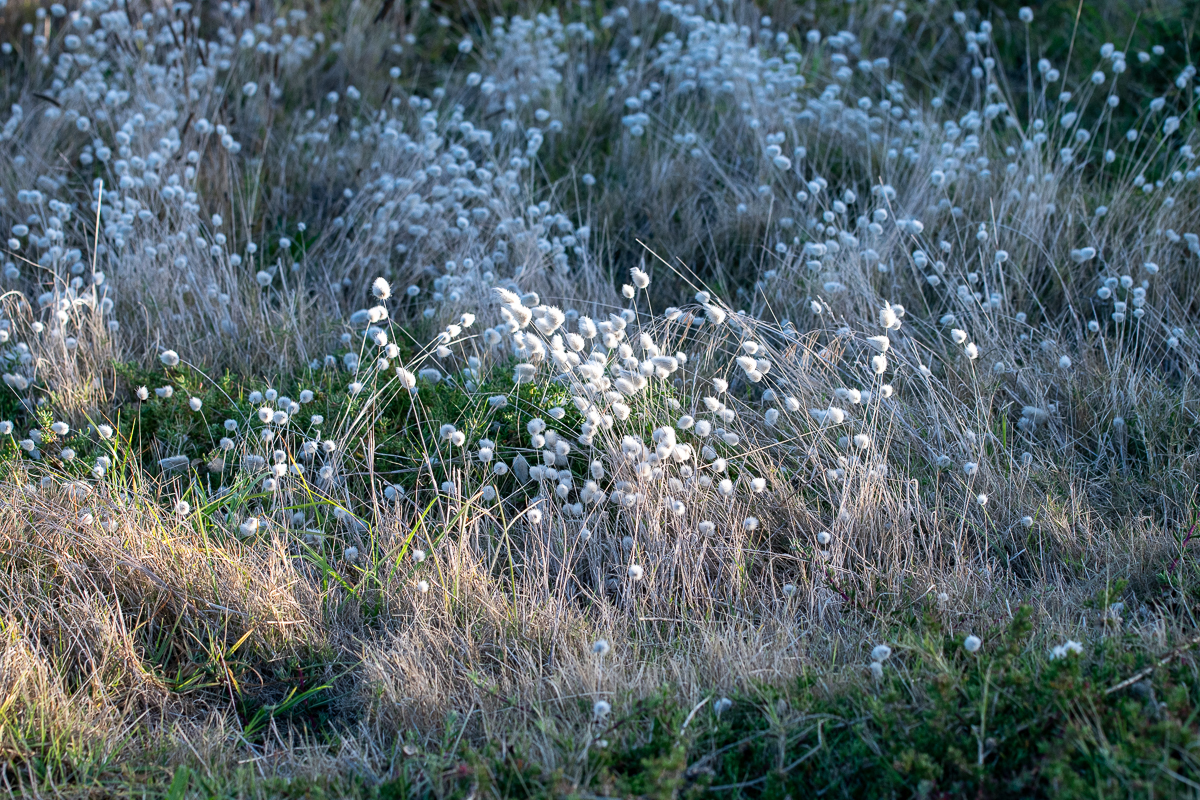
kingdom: Plantae
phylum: Tracheophyta
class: Liliopsida
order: Poales
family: Poaceae
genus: Lagurus
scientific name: Lagurus ovatus
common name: Hare's-tail
